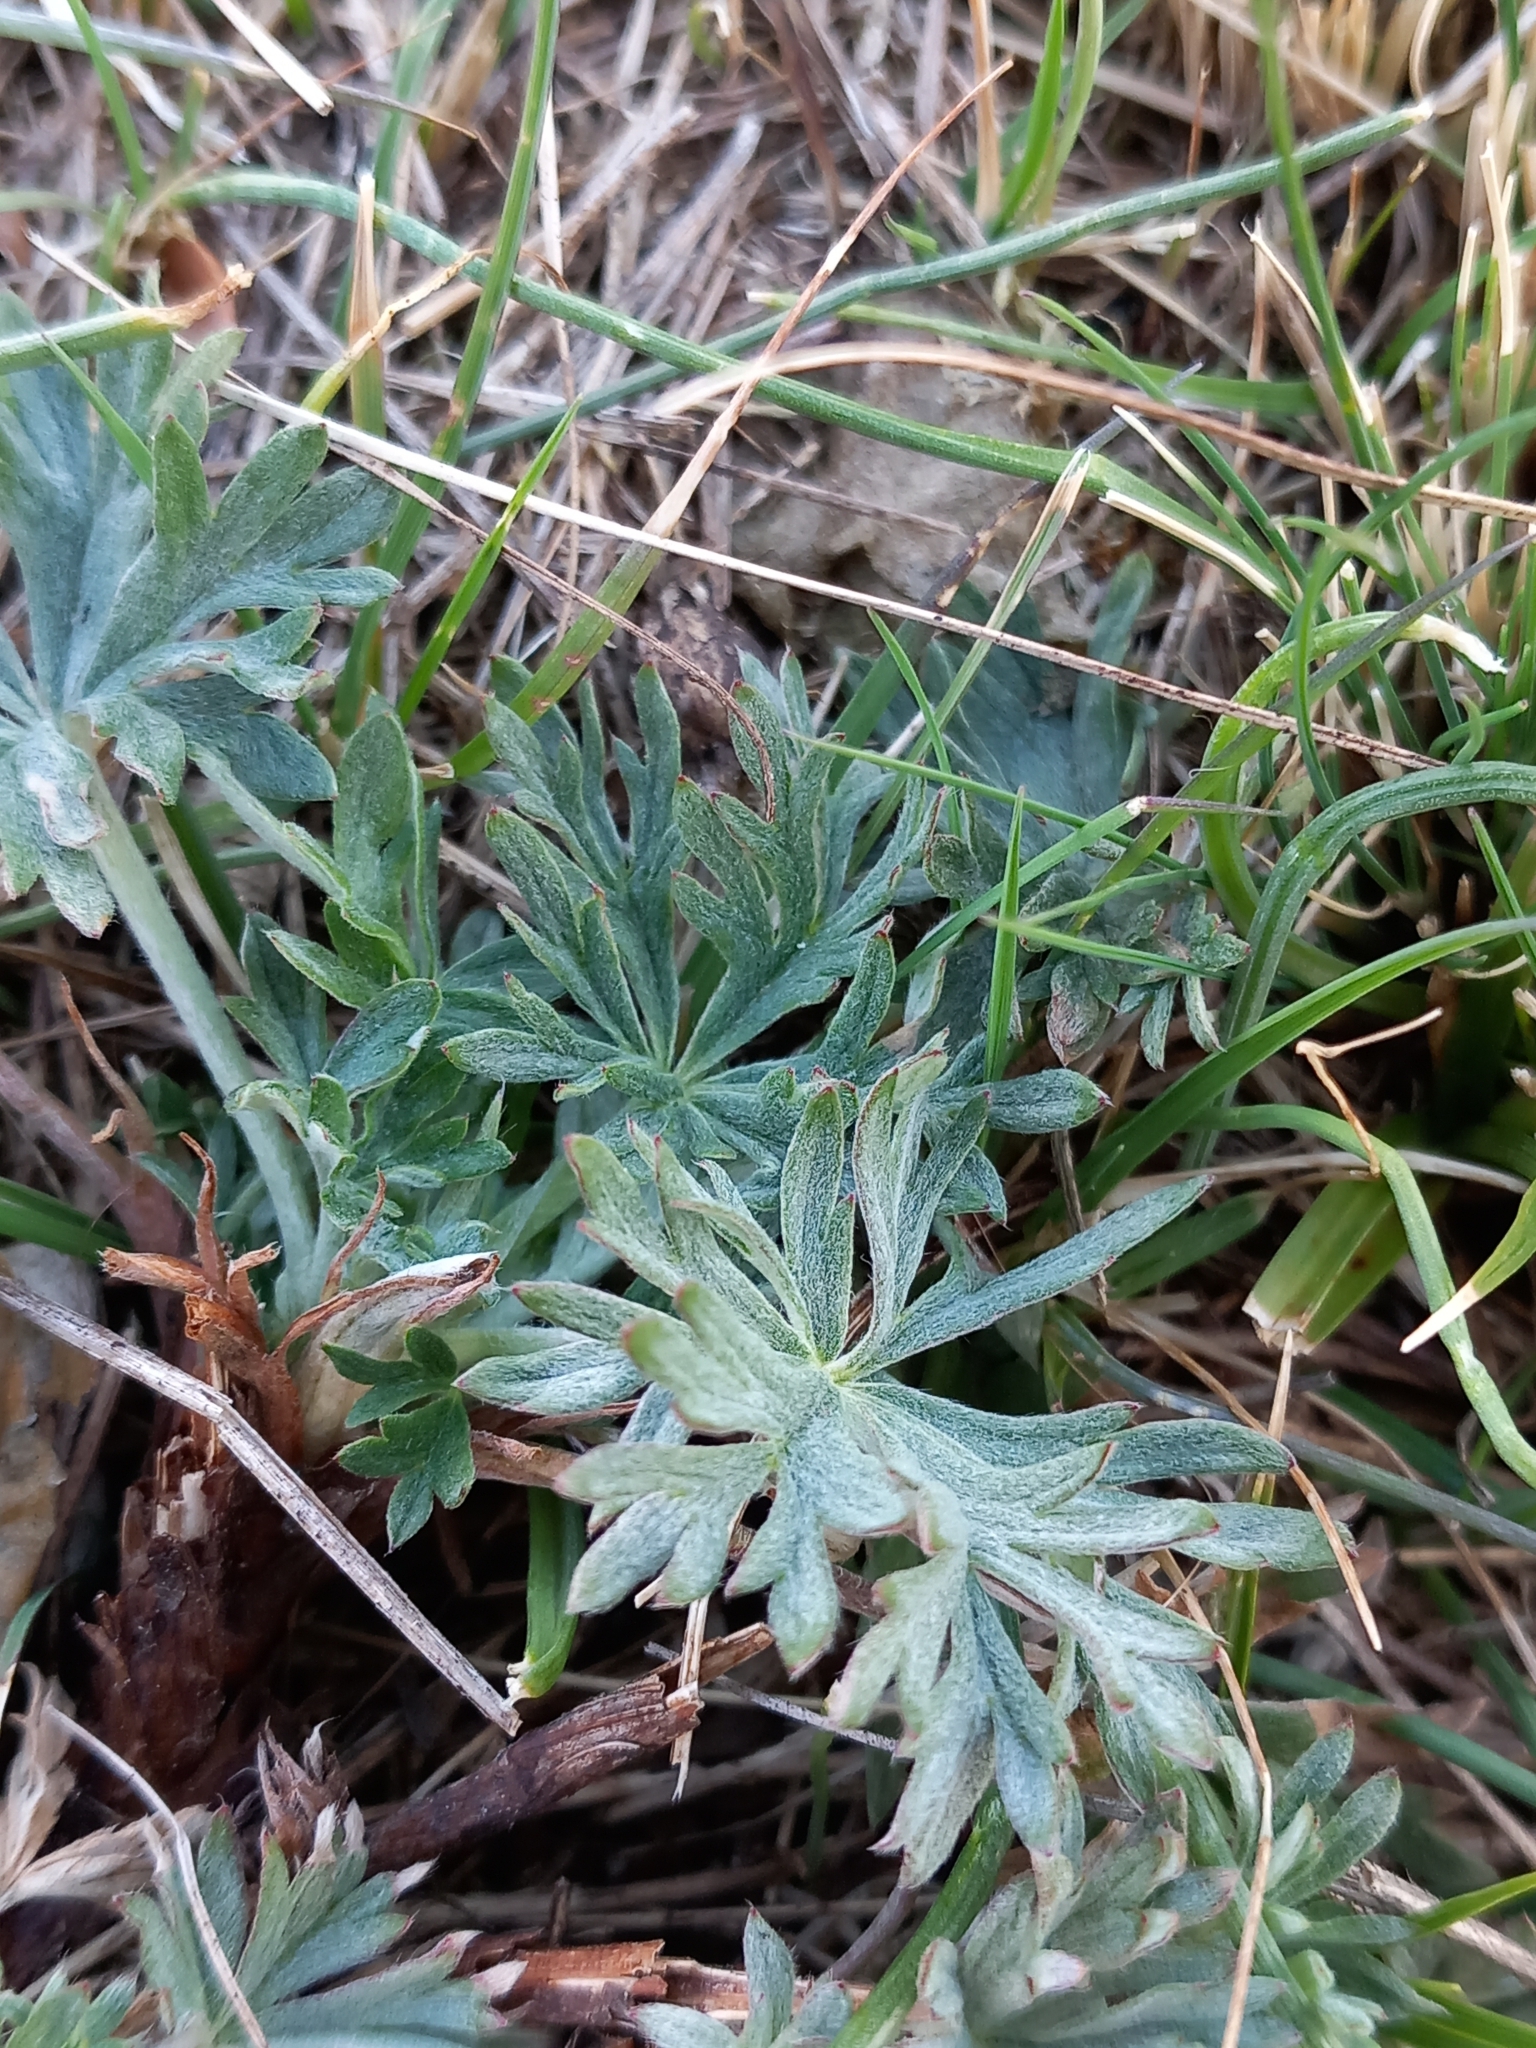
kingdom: Plantae
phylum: Tracheophyta
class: Magnoliopsida
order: Rosales
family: Rosaceae
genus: Potentilla
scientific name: Potentilla argentea
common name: Hoary cinquefoil
